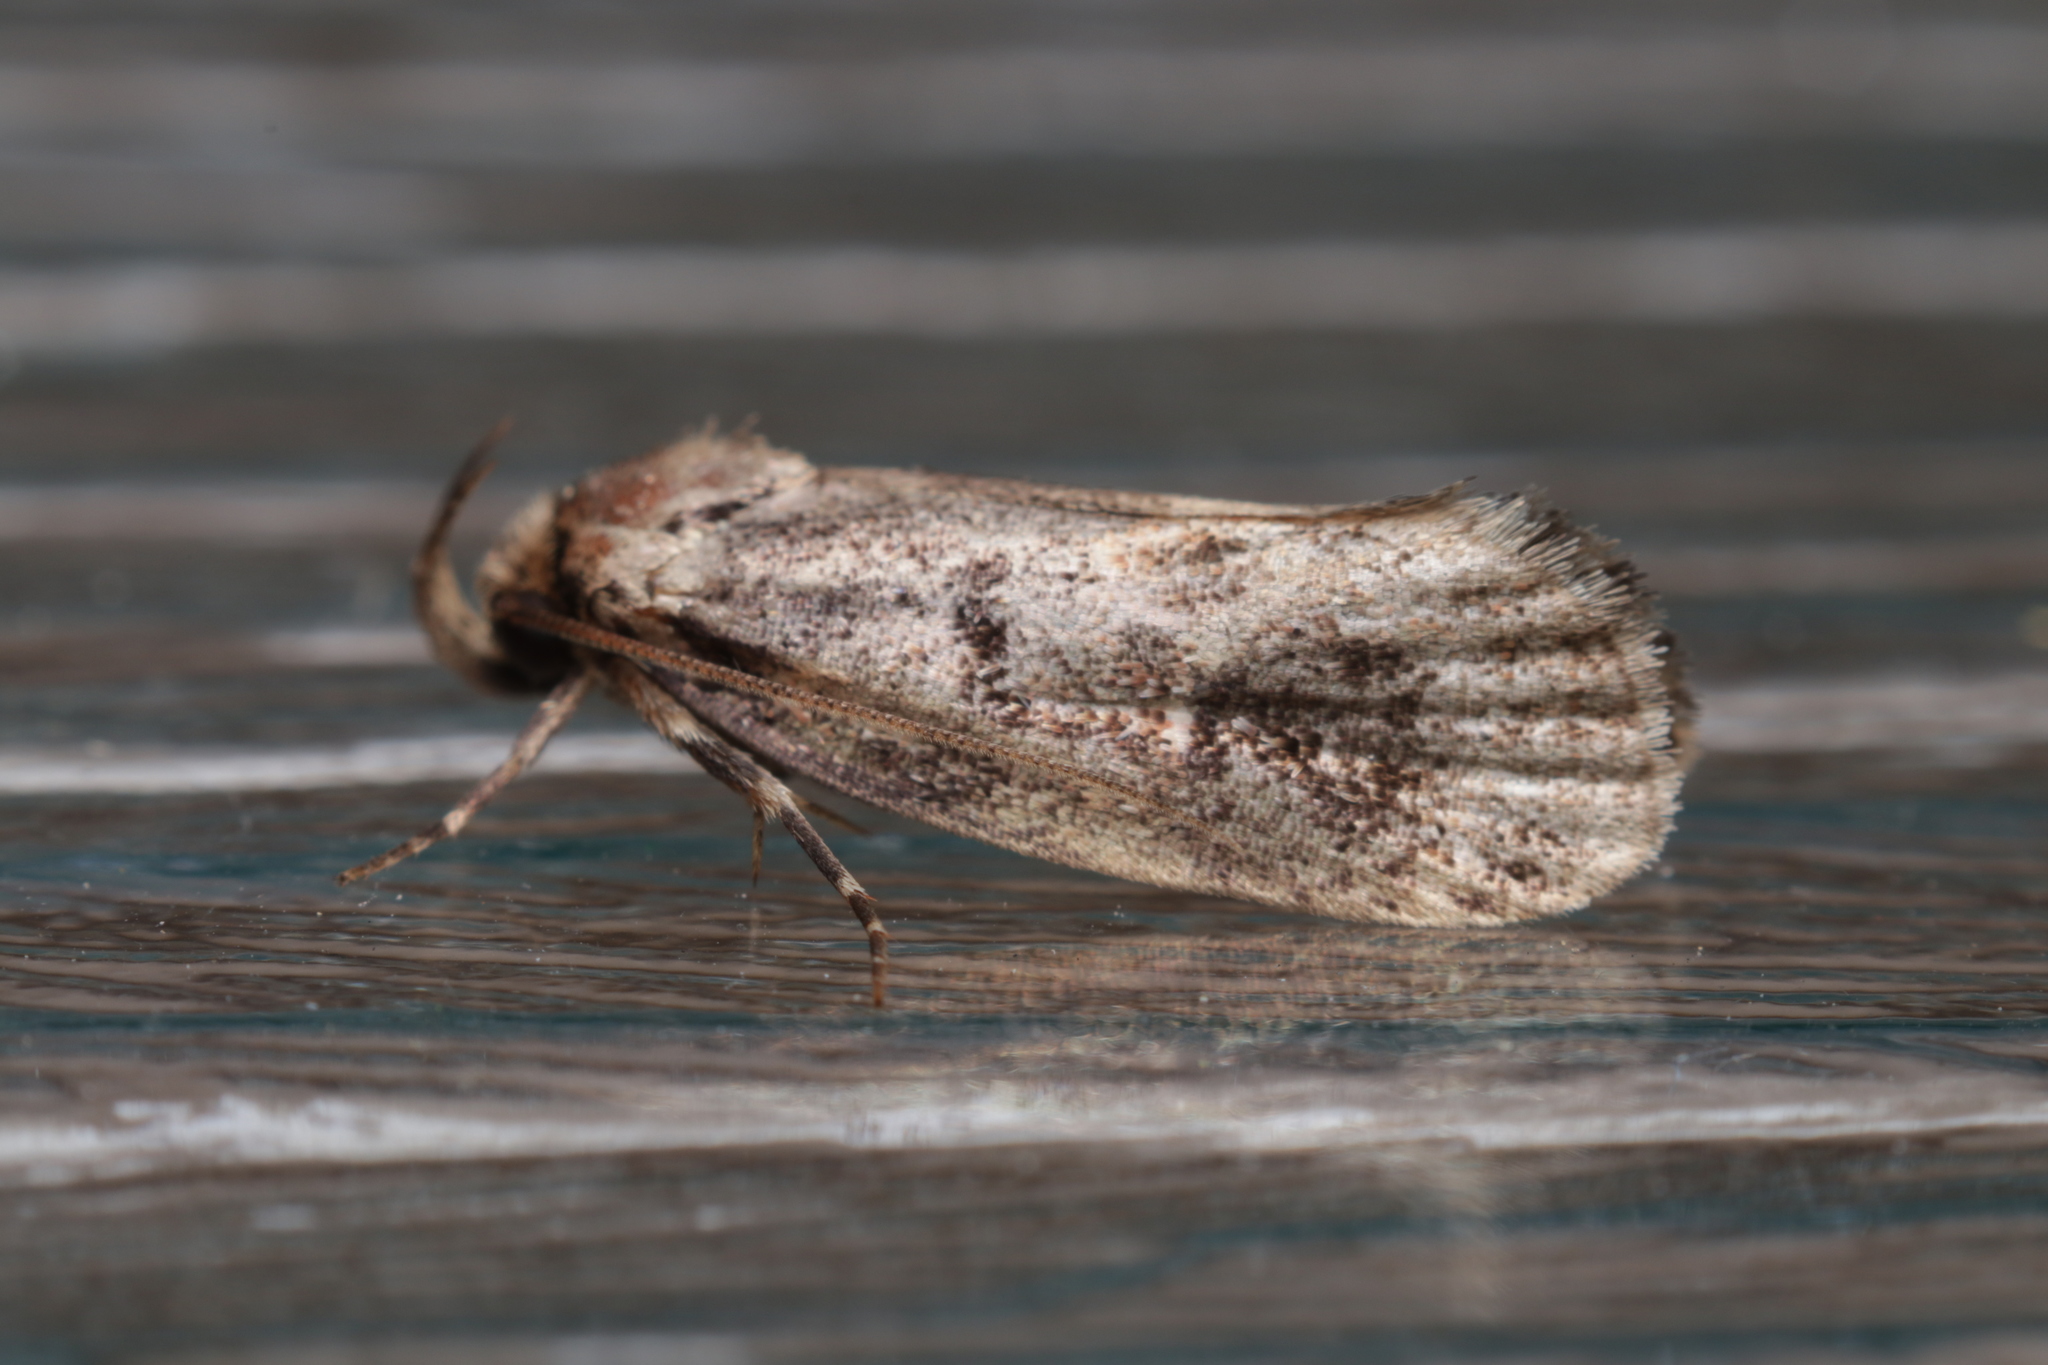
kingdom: Animalia
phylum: Arthropoda
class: Insecta
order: Lepidoptera
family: Oecophoridae
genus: Barea
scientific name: Barea consignatella
